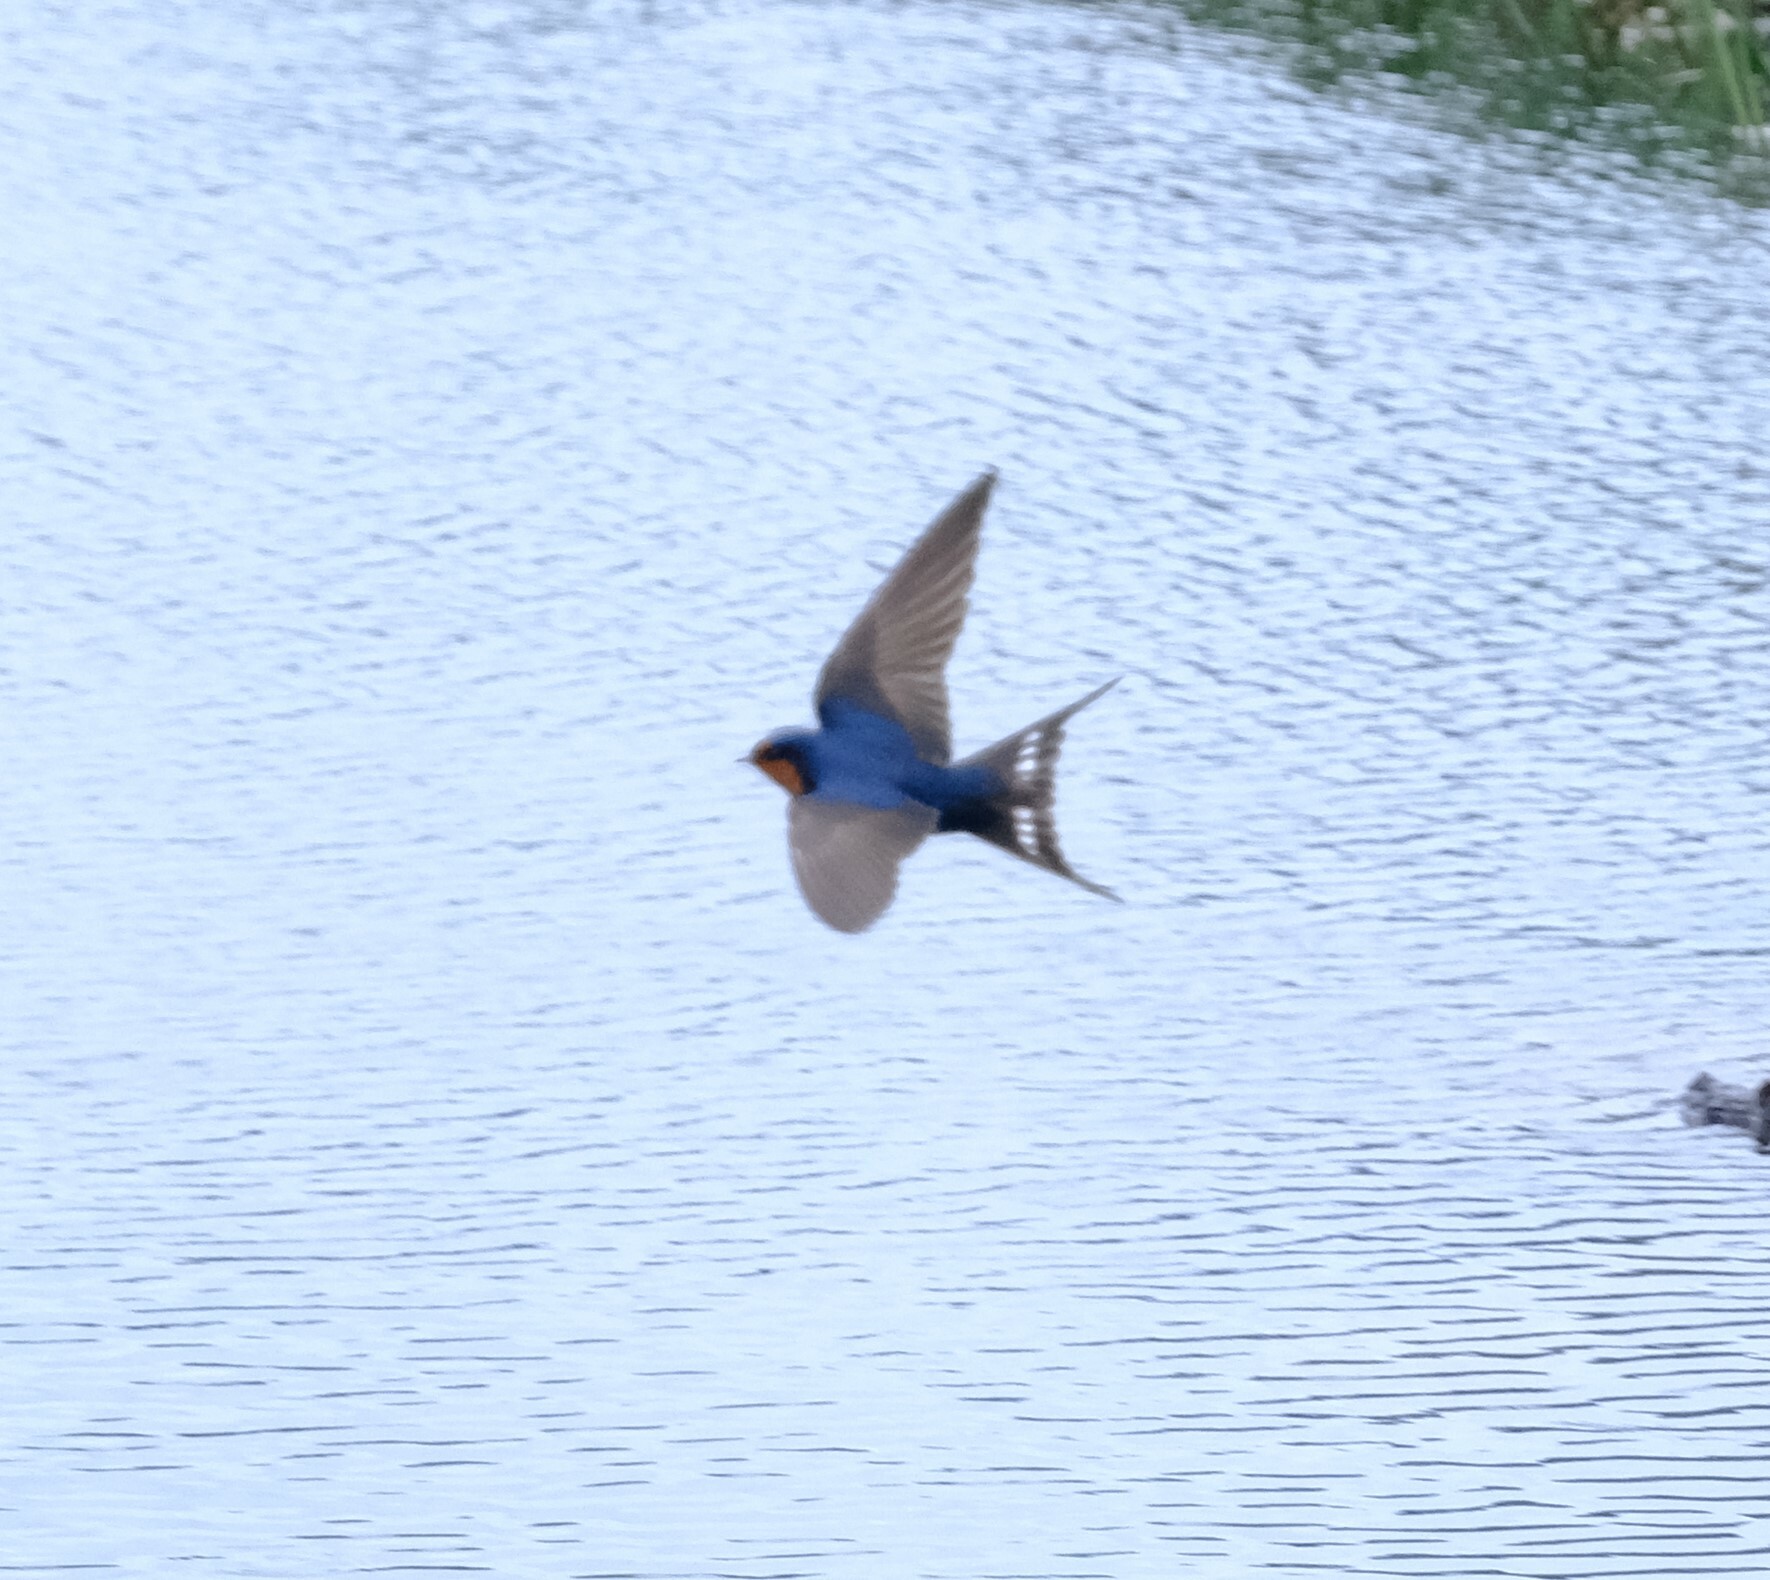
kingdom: Animalia
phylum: Chordata
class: Aves
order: Passeriformes
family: Hirundinidae
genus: Hirundo
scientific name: Hirundo neoxena
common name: Welcome swallow
